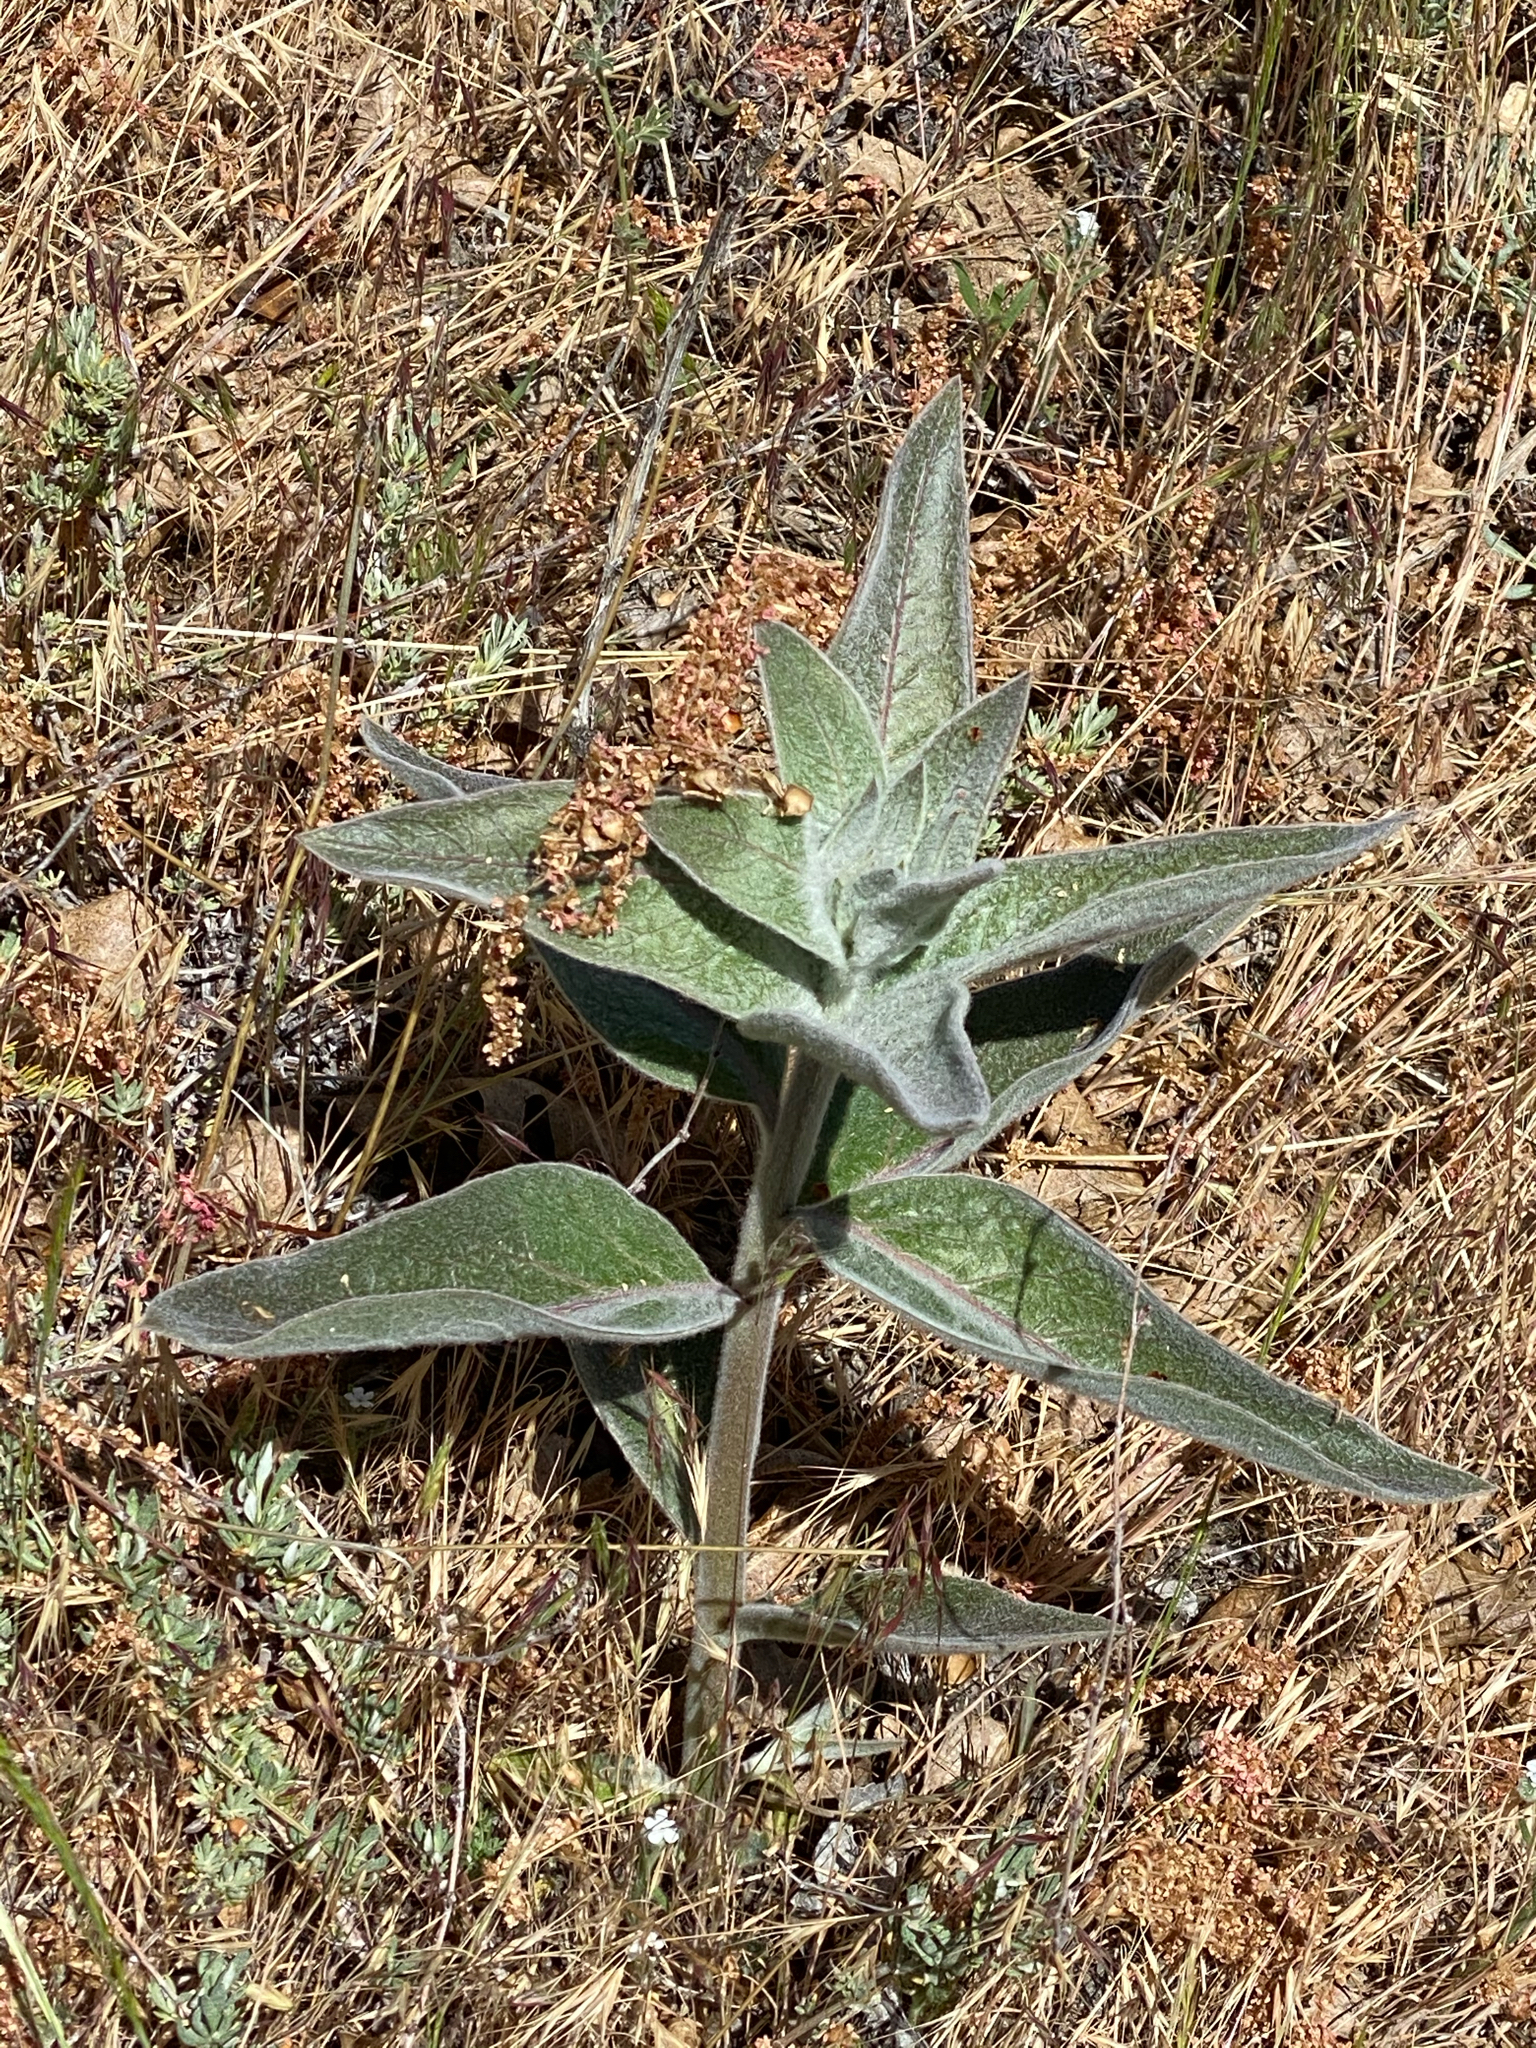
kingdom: Plantae
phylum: Tracheophyta
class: Magnoliopsida
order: Gentianales
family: Apocynaceae
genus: Asclepias
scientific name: Asclepias eriocarpa
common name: Indian milkweed
